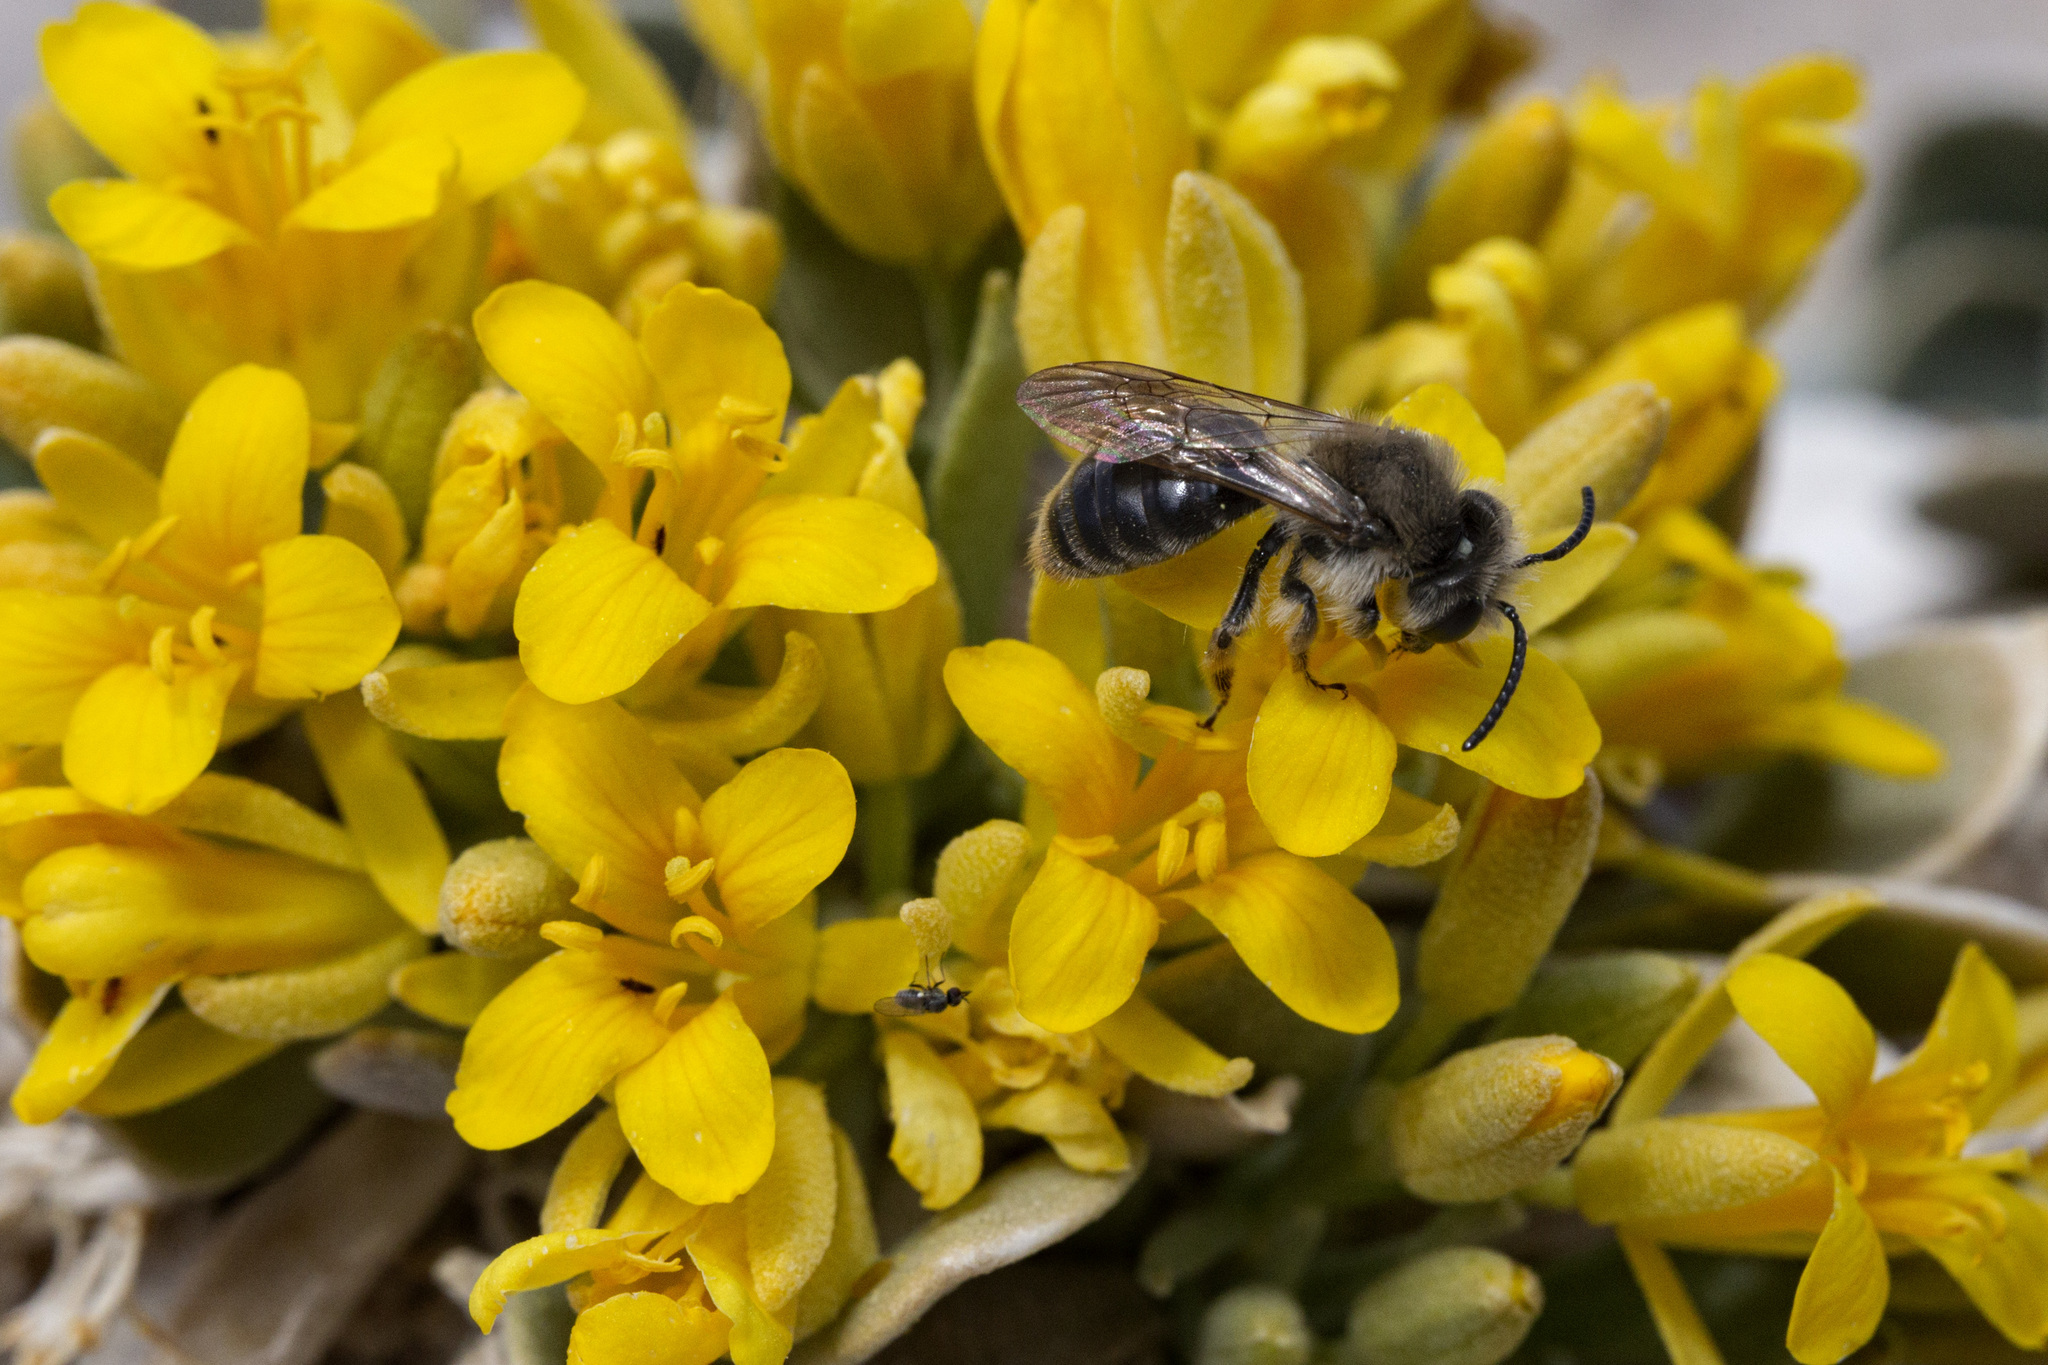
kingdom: Animalia
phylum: Arthropoda
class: Insecta
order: Hymenoptera
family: Andrenidae
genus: Andrena
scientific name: Andrena
